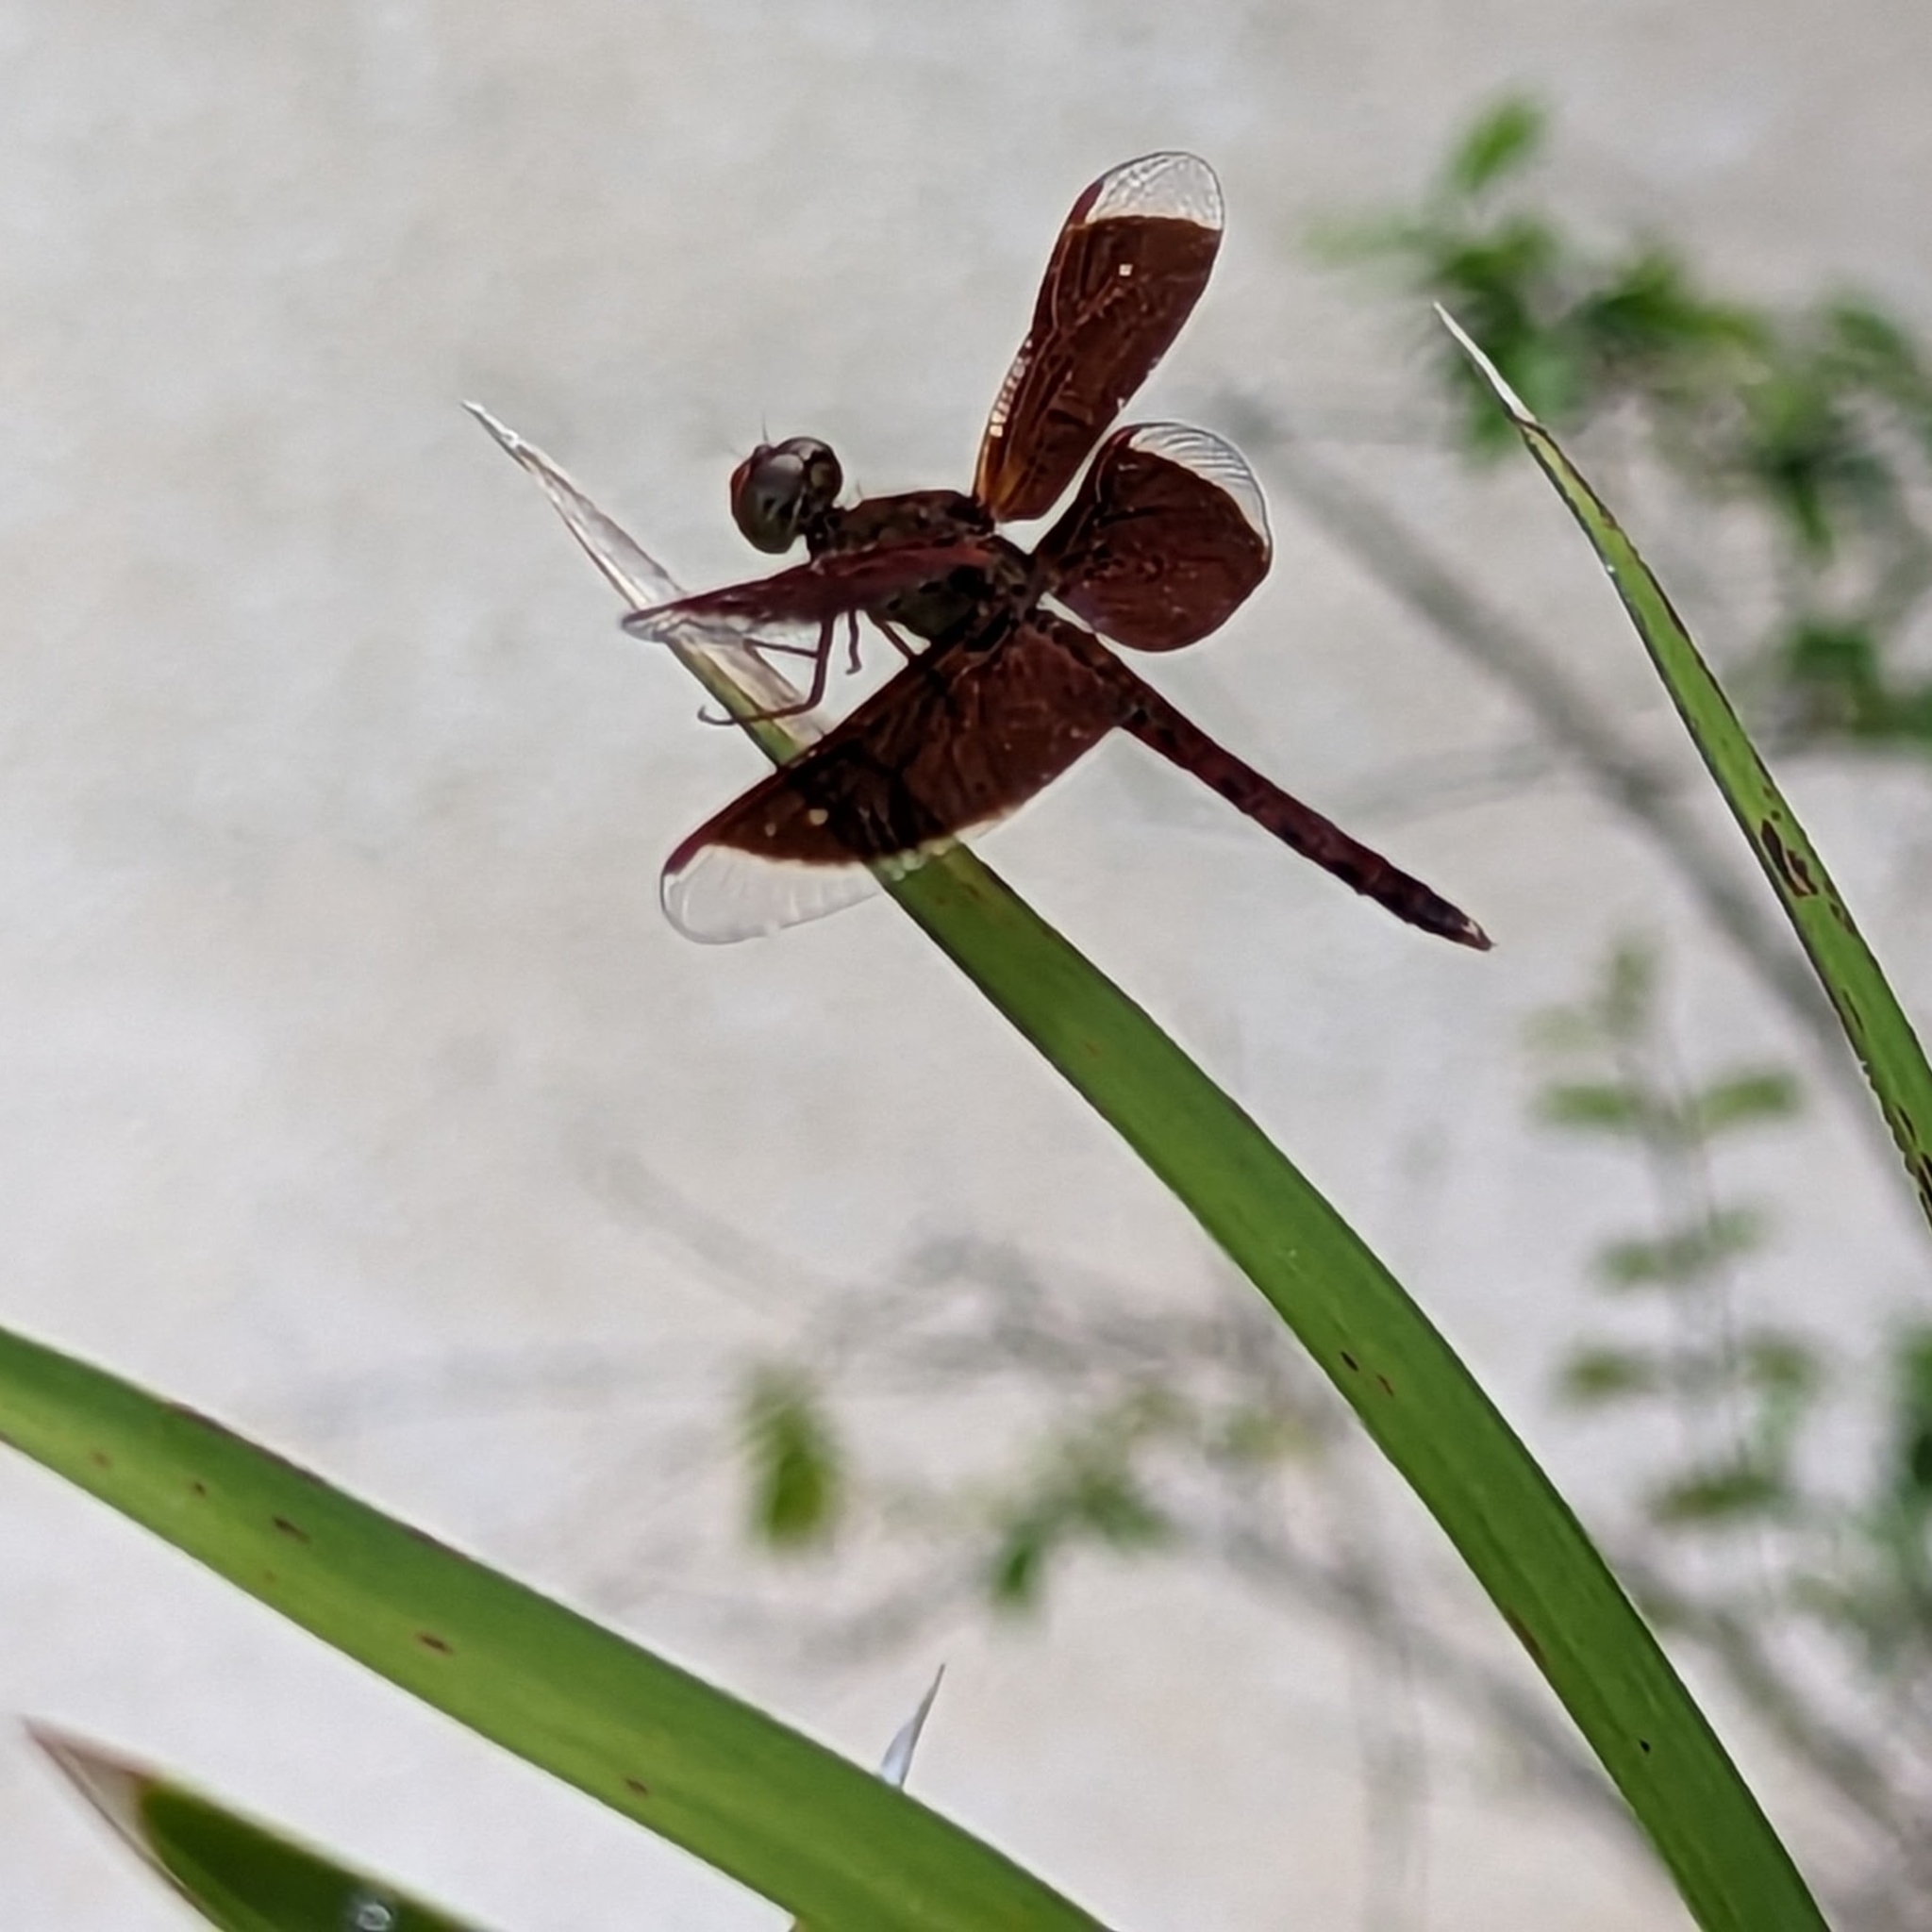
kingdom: Animalia
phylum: Arthropoda
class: Insecta
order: Odonata
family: Libellulidae
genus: Neurothemis
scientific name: Neurothemis fluctuans
